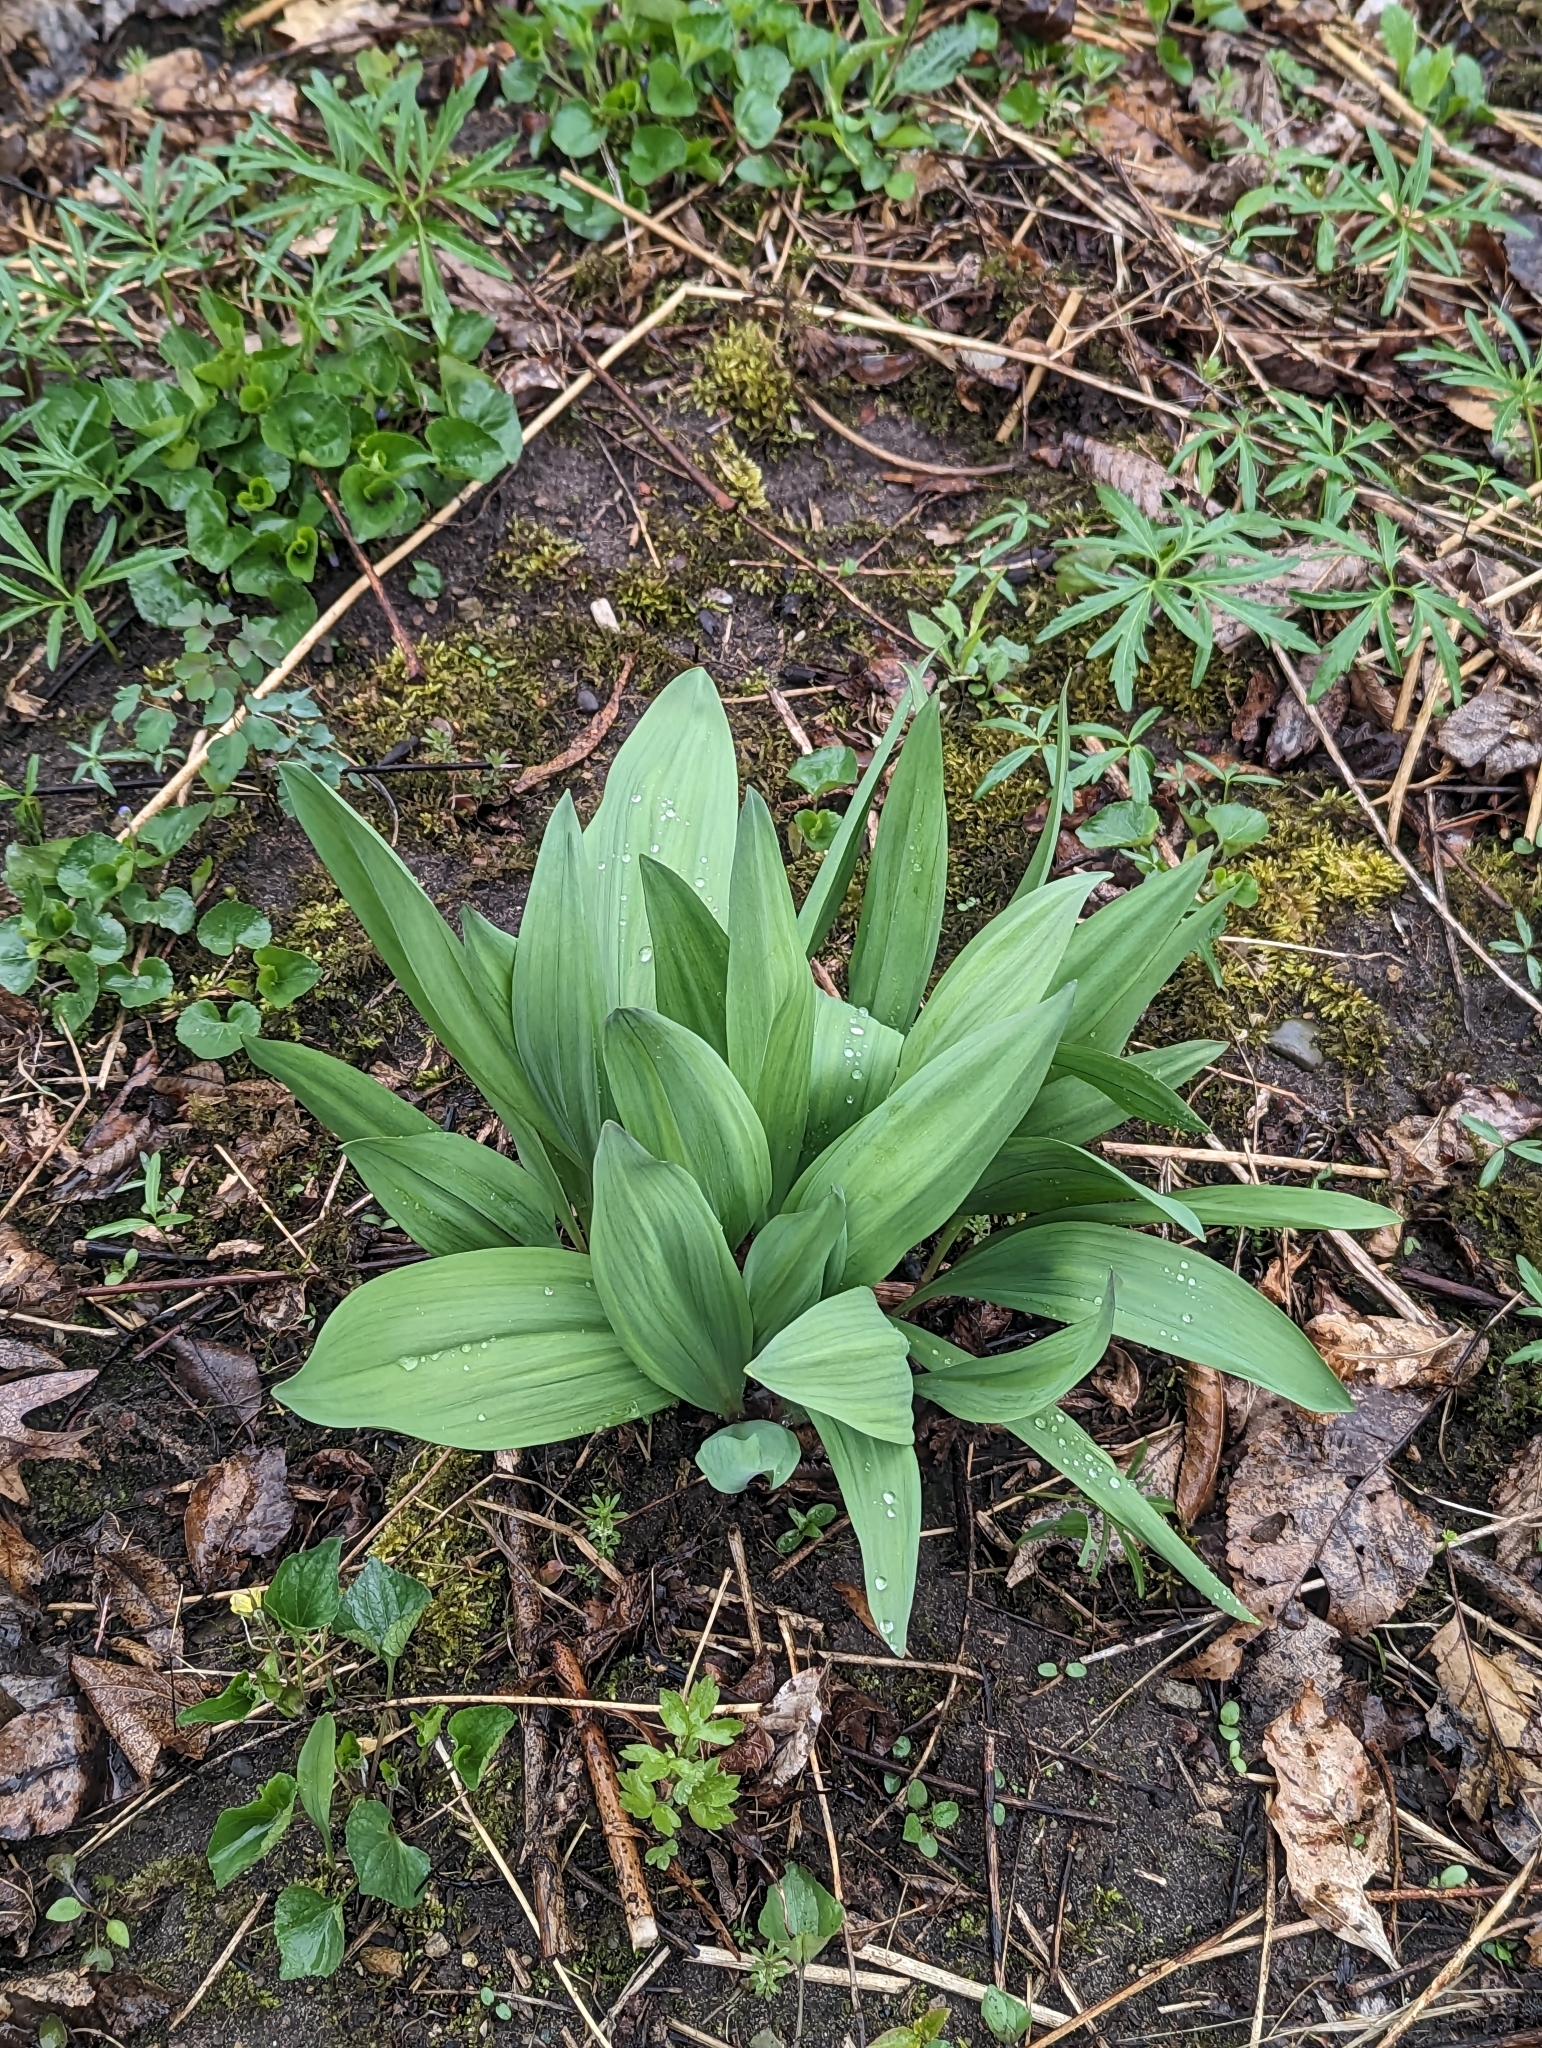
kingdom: Plantae
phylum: Tracheophyta
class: Liliopsida
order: Asparagales
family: Amaryllidaceae
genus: Allium
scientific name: Allium tricoccum
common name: Ramp
